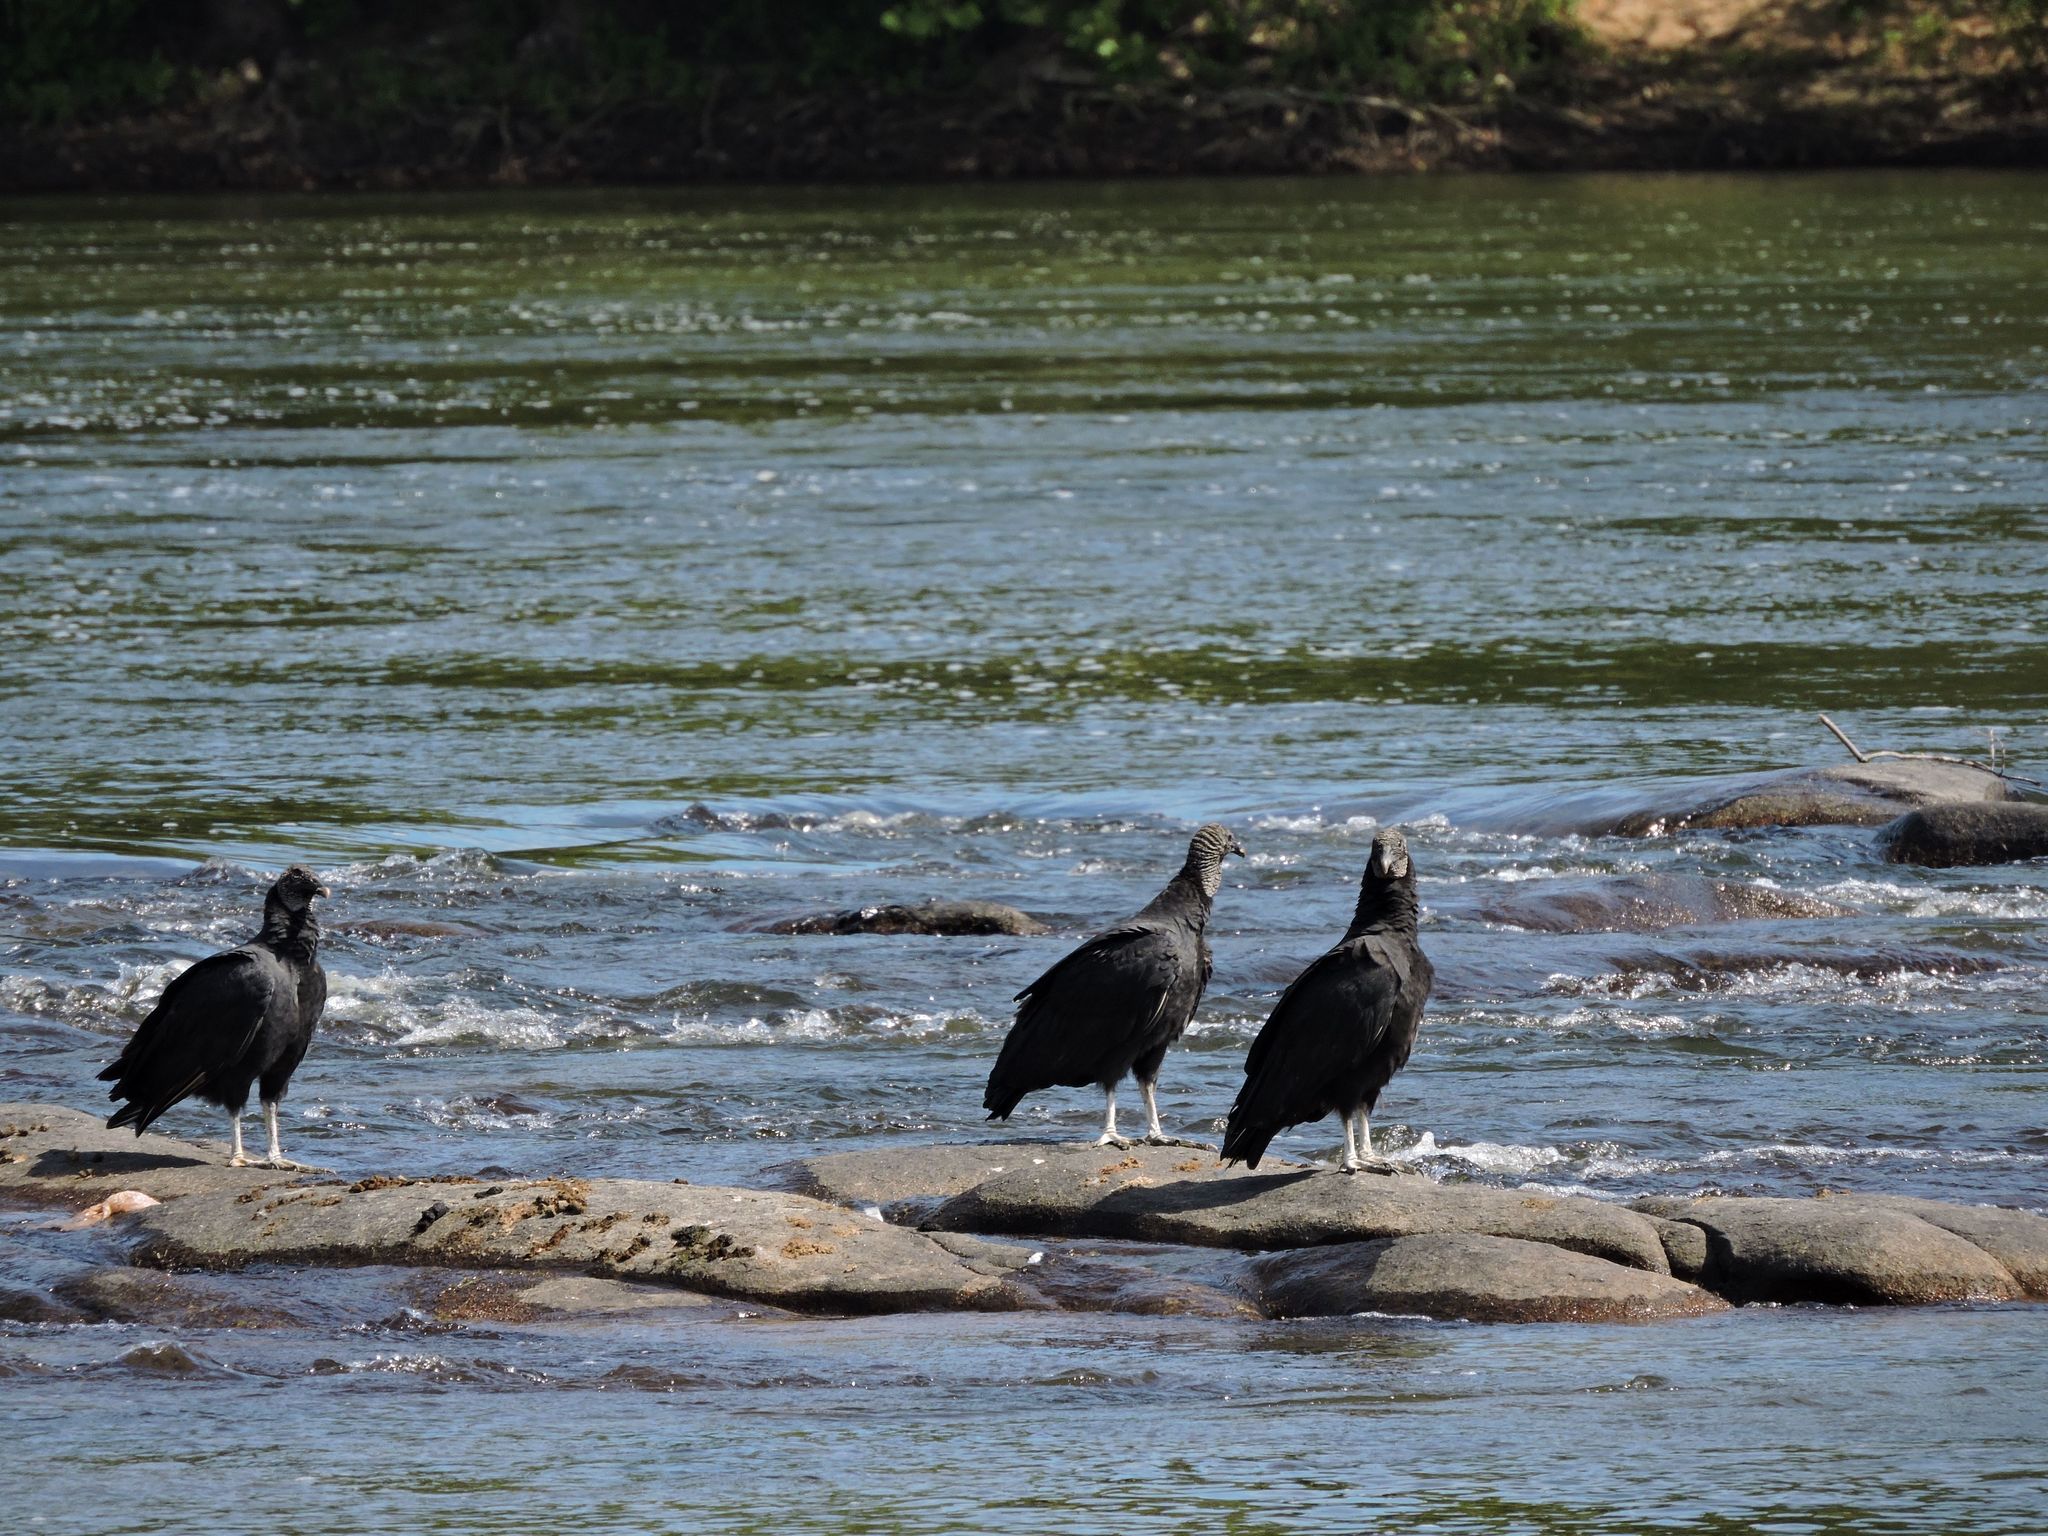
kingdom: Animalia
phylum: Chordata
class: Aves
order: Accipitriformes
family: Cathartidae
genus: Cathartes
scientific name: Cathartes aura
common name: Turkey vulture
